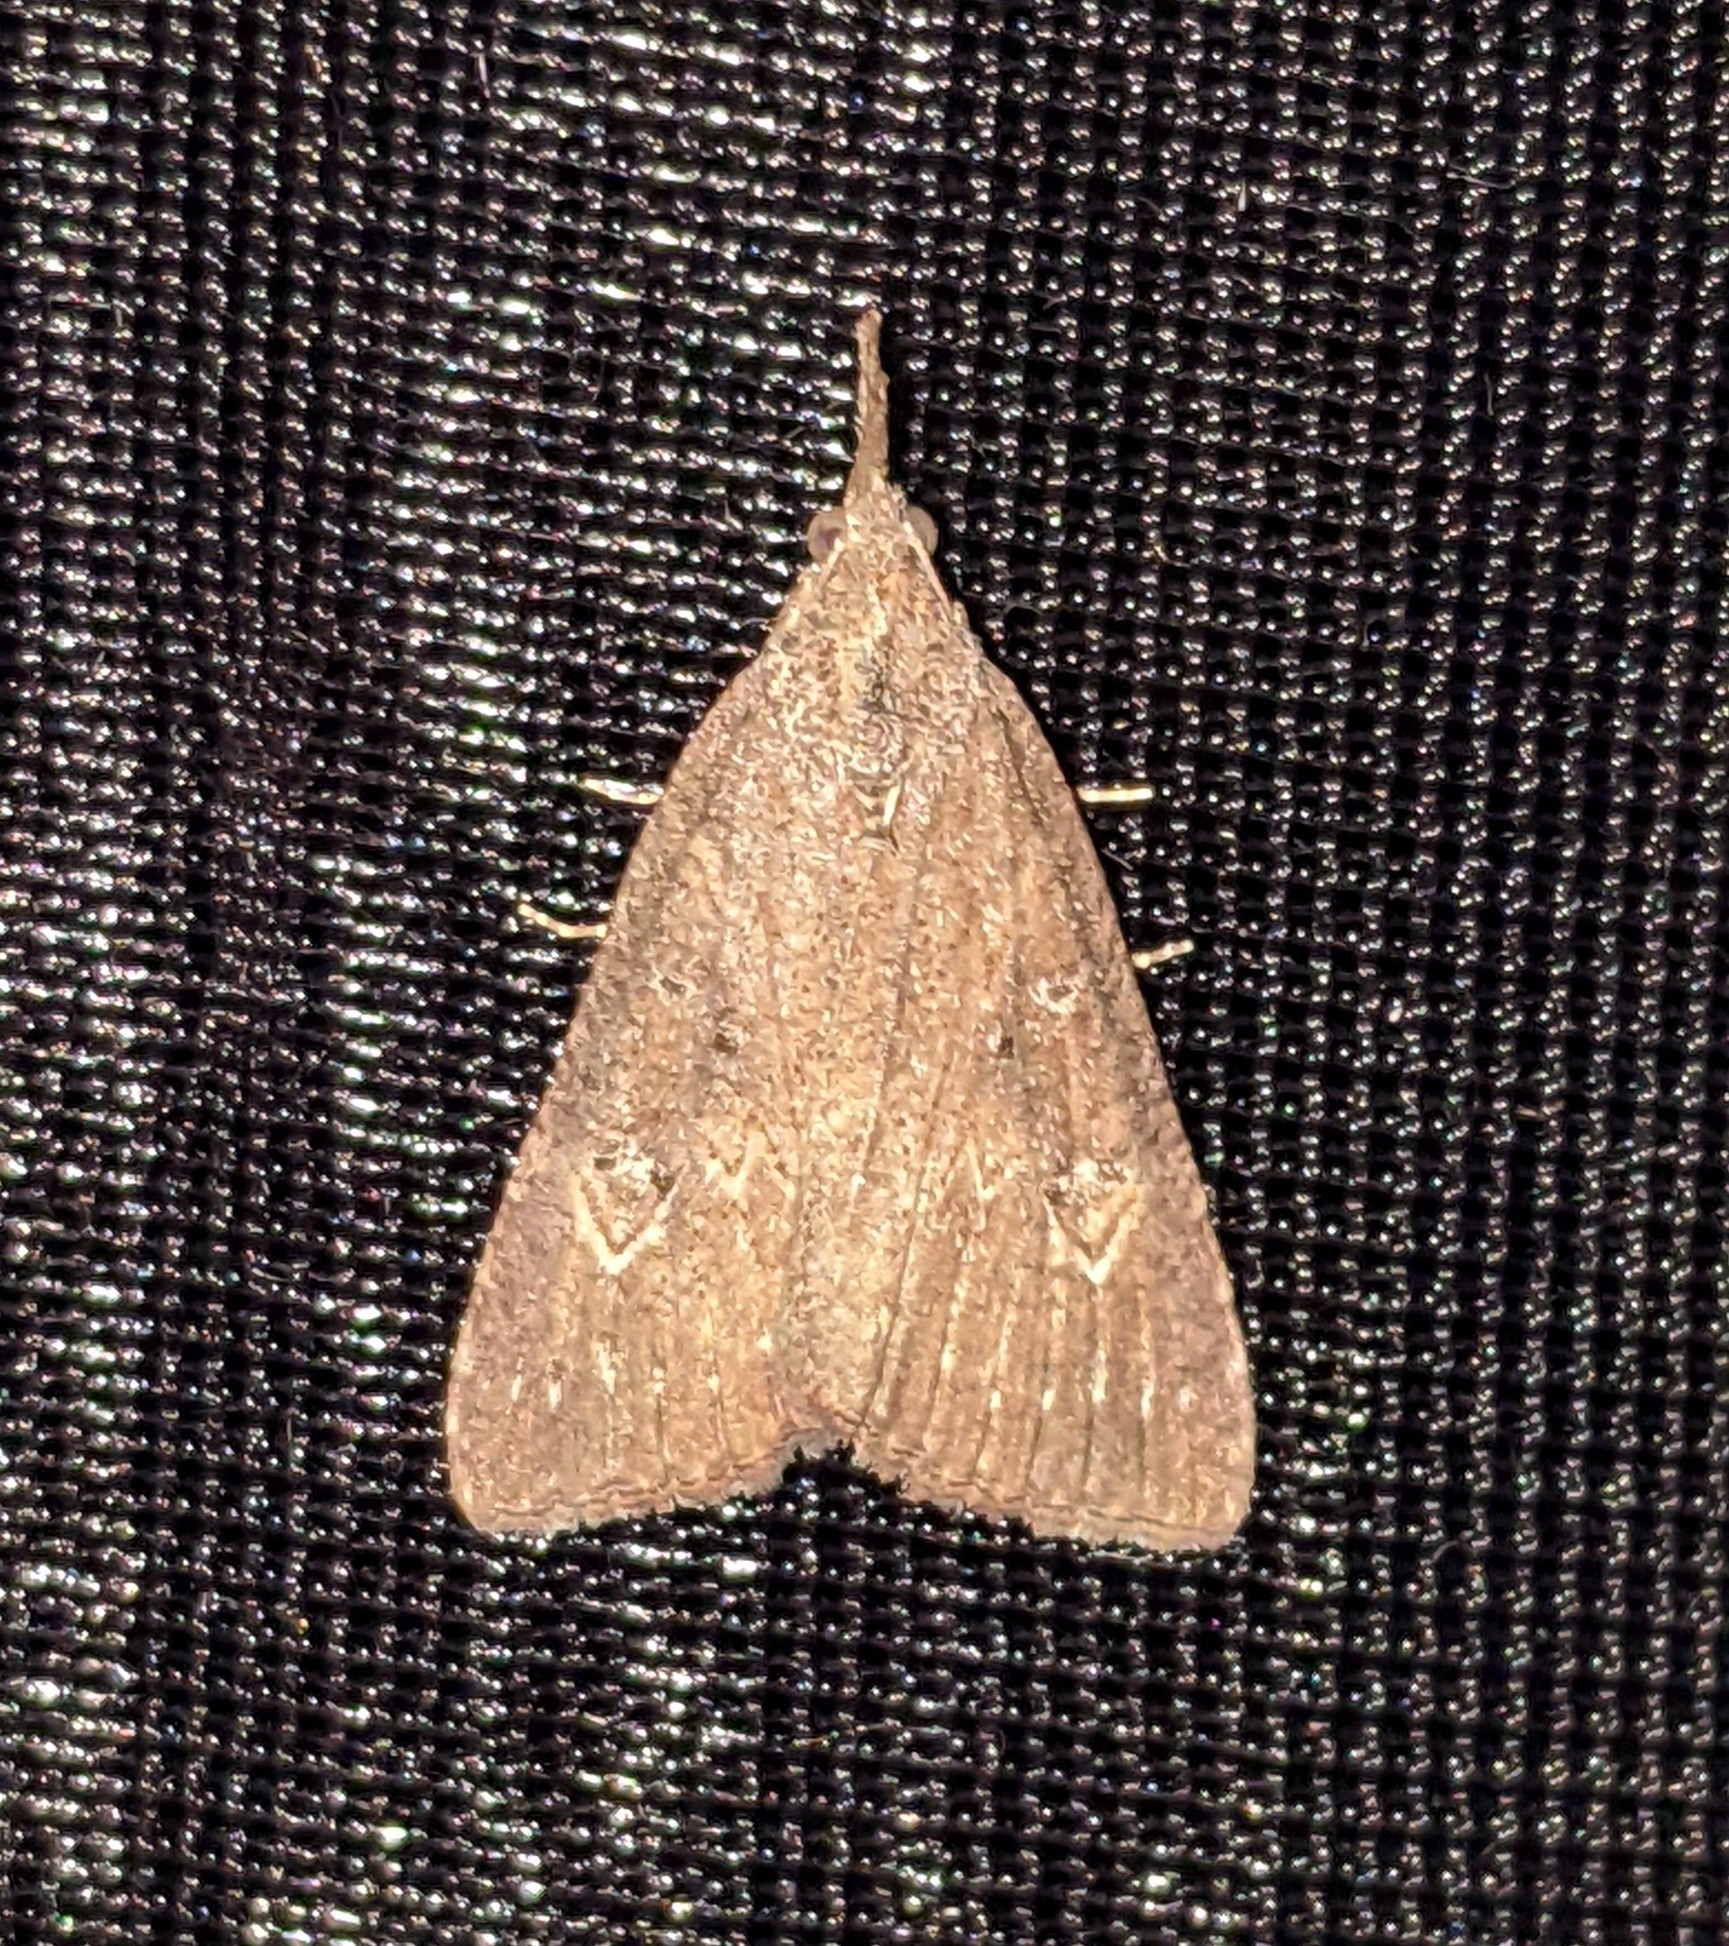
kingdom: Animalia
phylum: Arthropoda
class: Insecta
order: Lepidoptera
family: Erebidae
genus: Hypena
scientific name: Hypena humuli
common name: Hop vine snout
